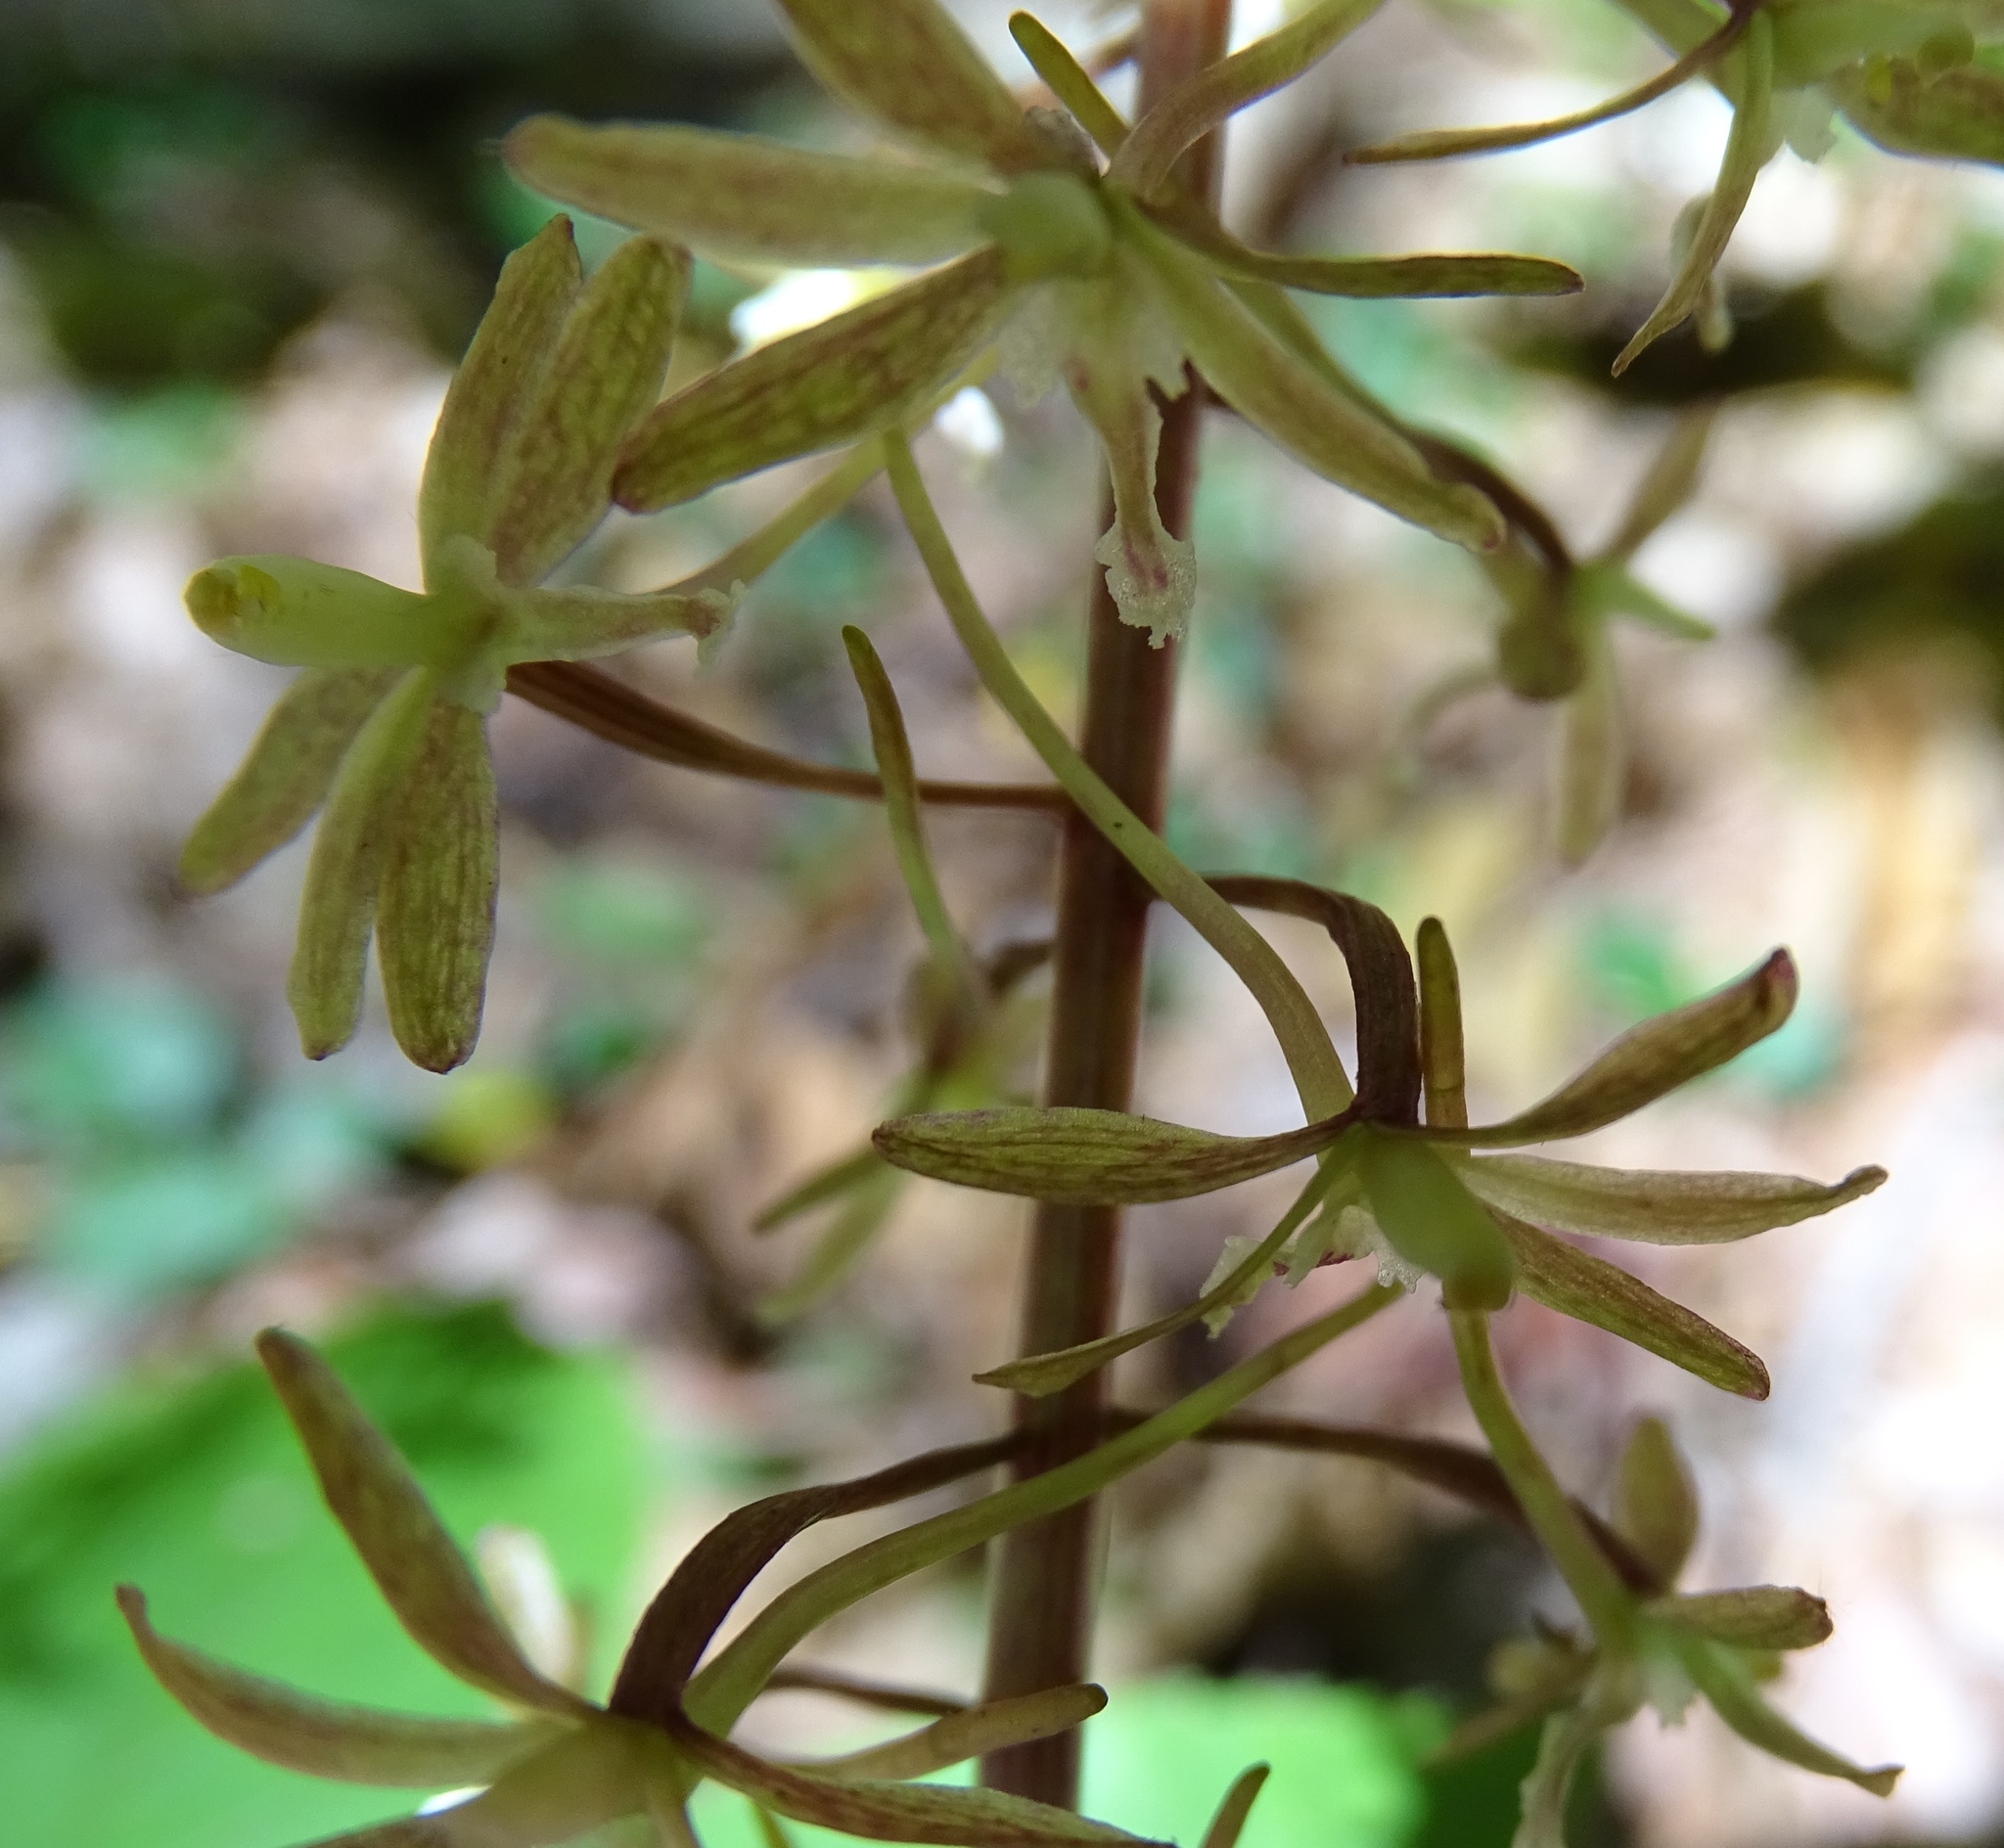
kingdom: Plantae
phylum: Tracheophyta
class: Liliopsida
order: Asparagales
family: Orchidaceae
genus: Tipularia
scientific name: Tipularia discolor
